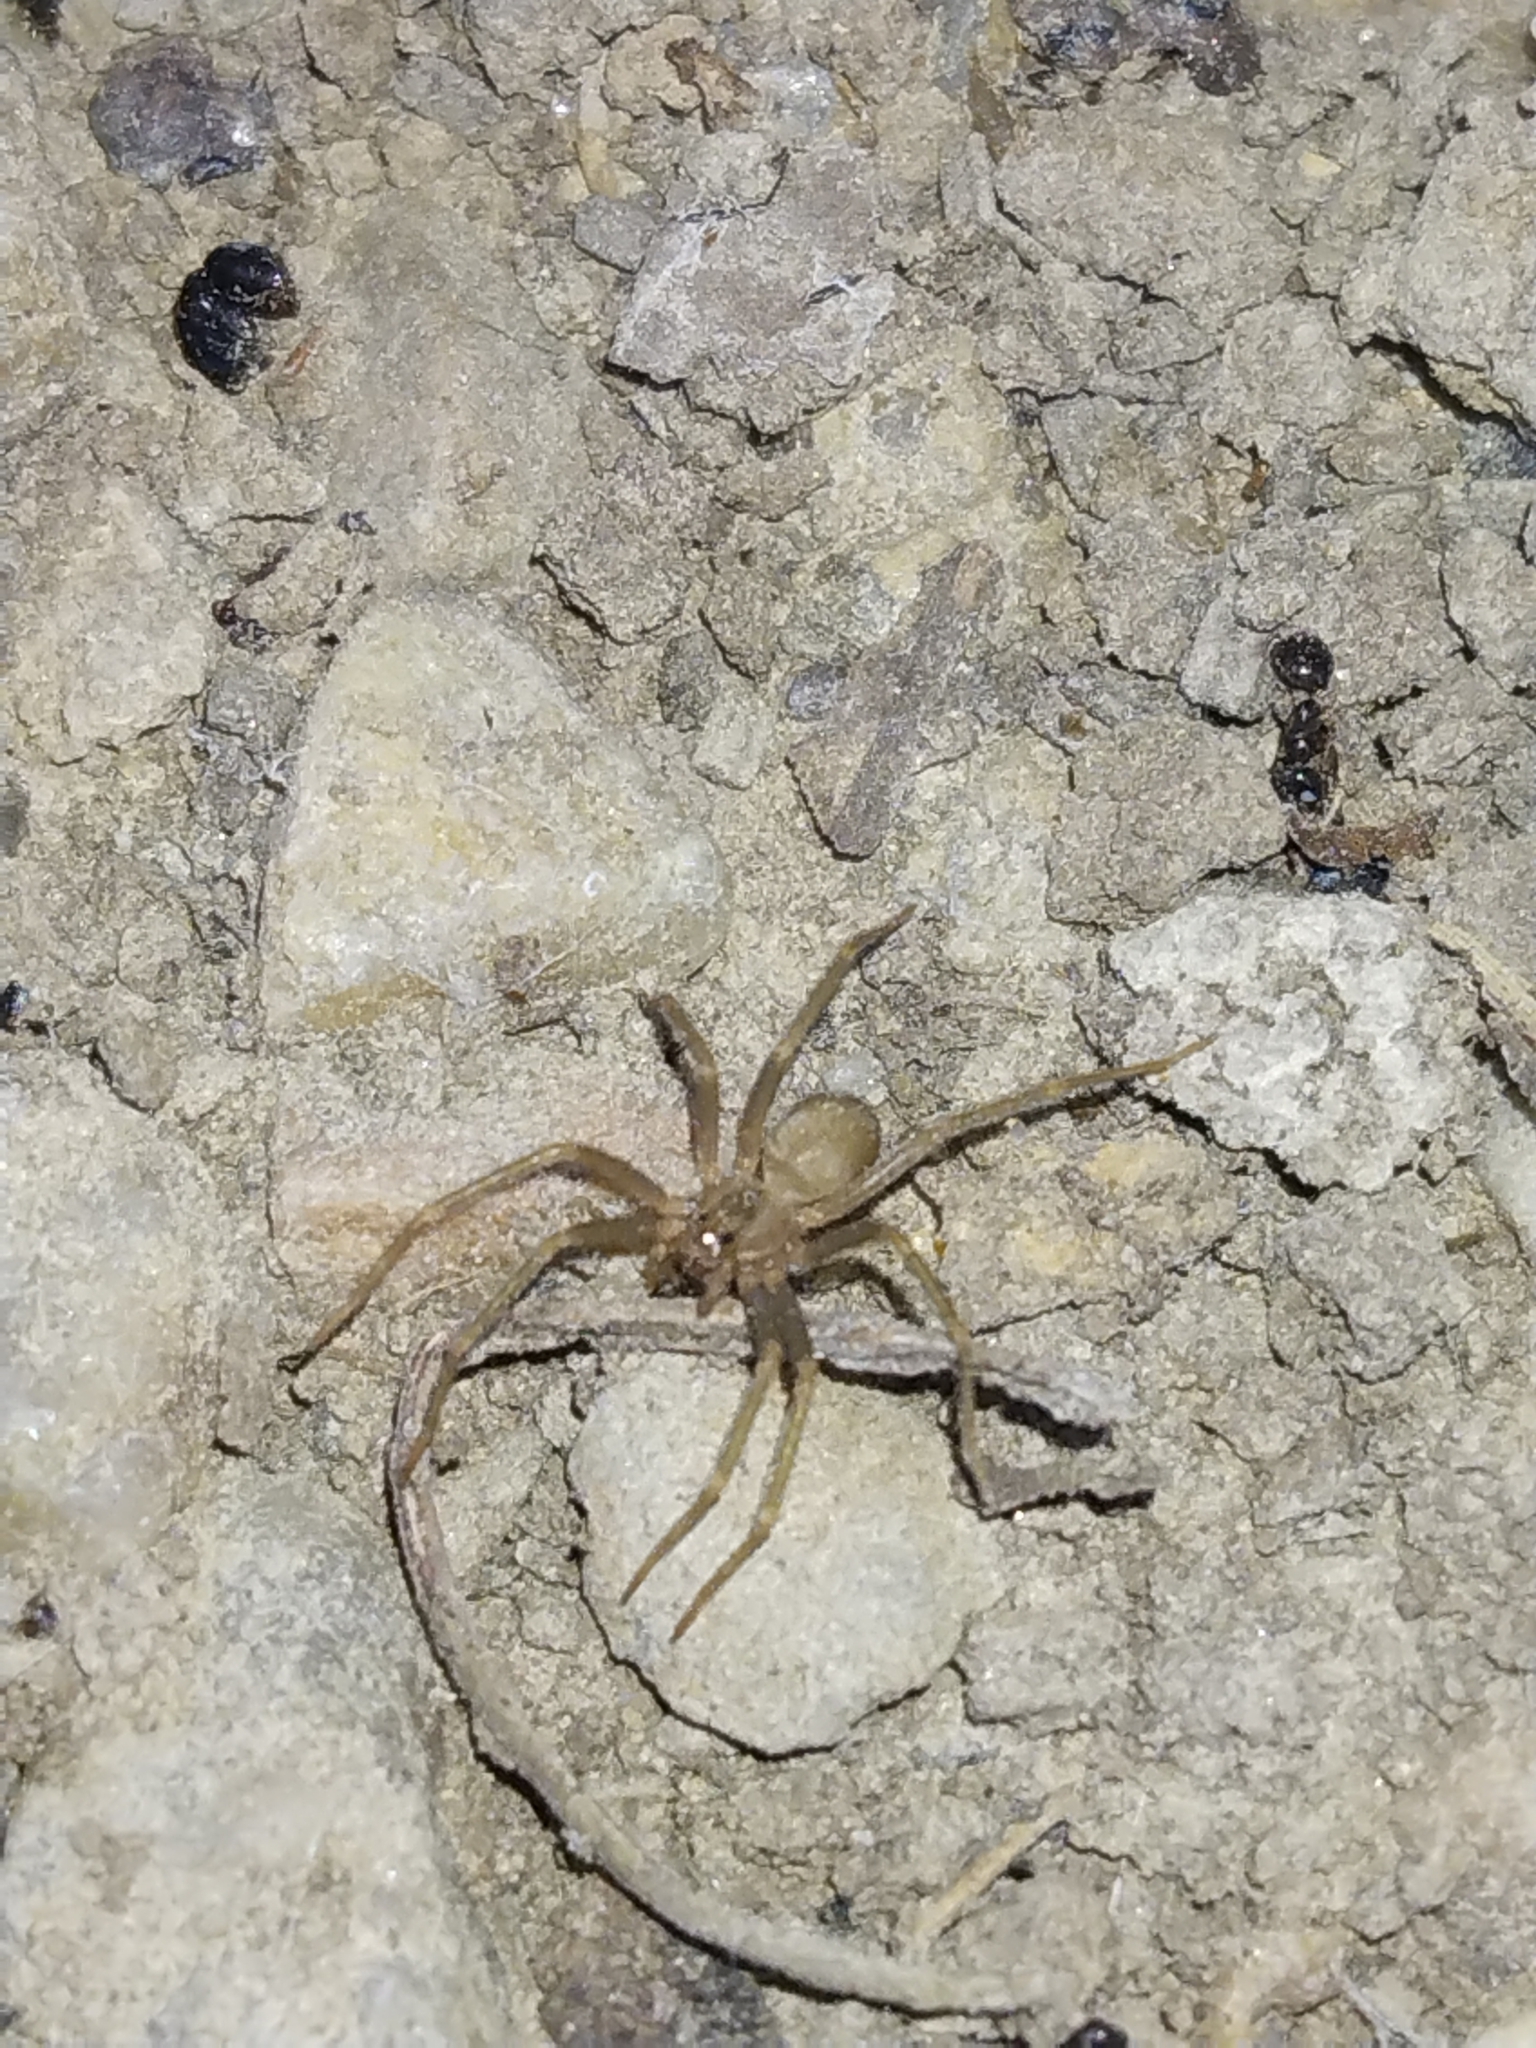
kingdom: Animalia
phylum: Arthropoda
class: Arachnida
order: Araneae
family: Sicariidae
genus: Loxosceles
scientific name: Loxosceles reclusa
